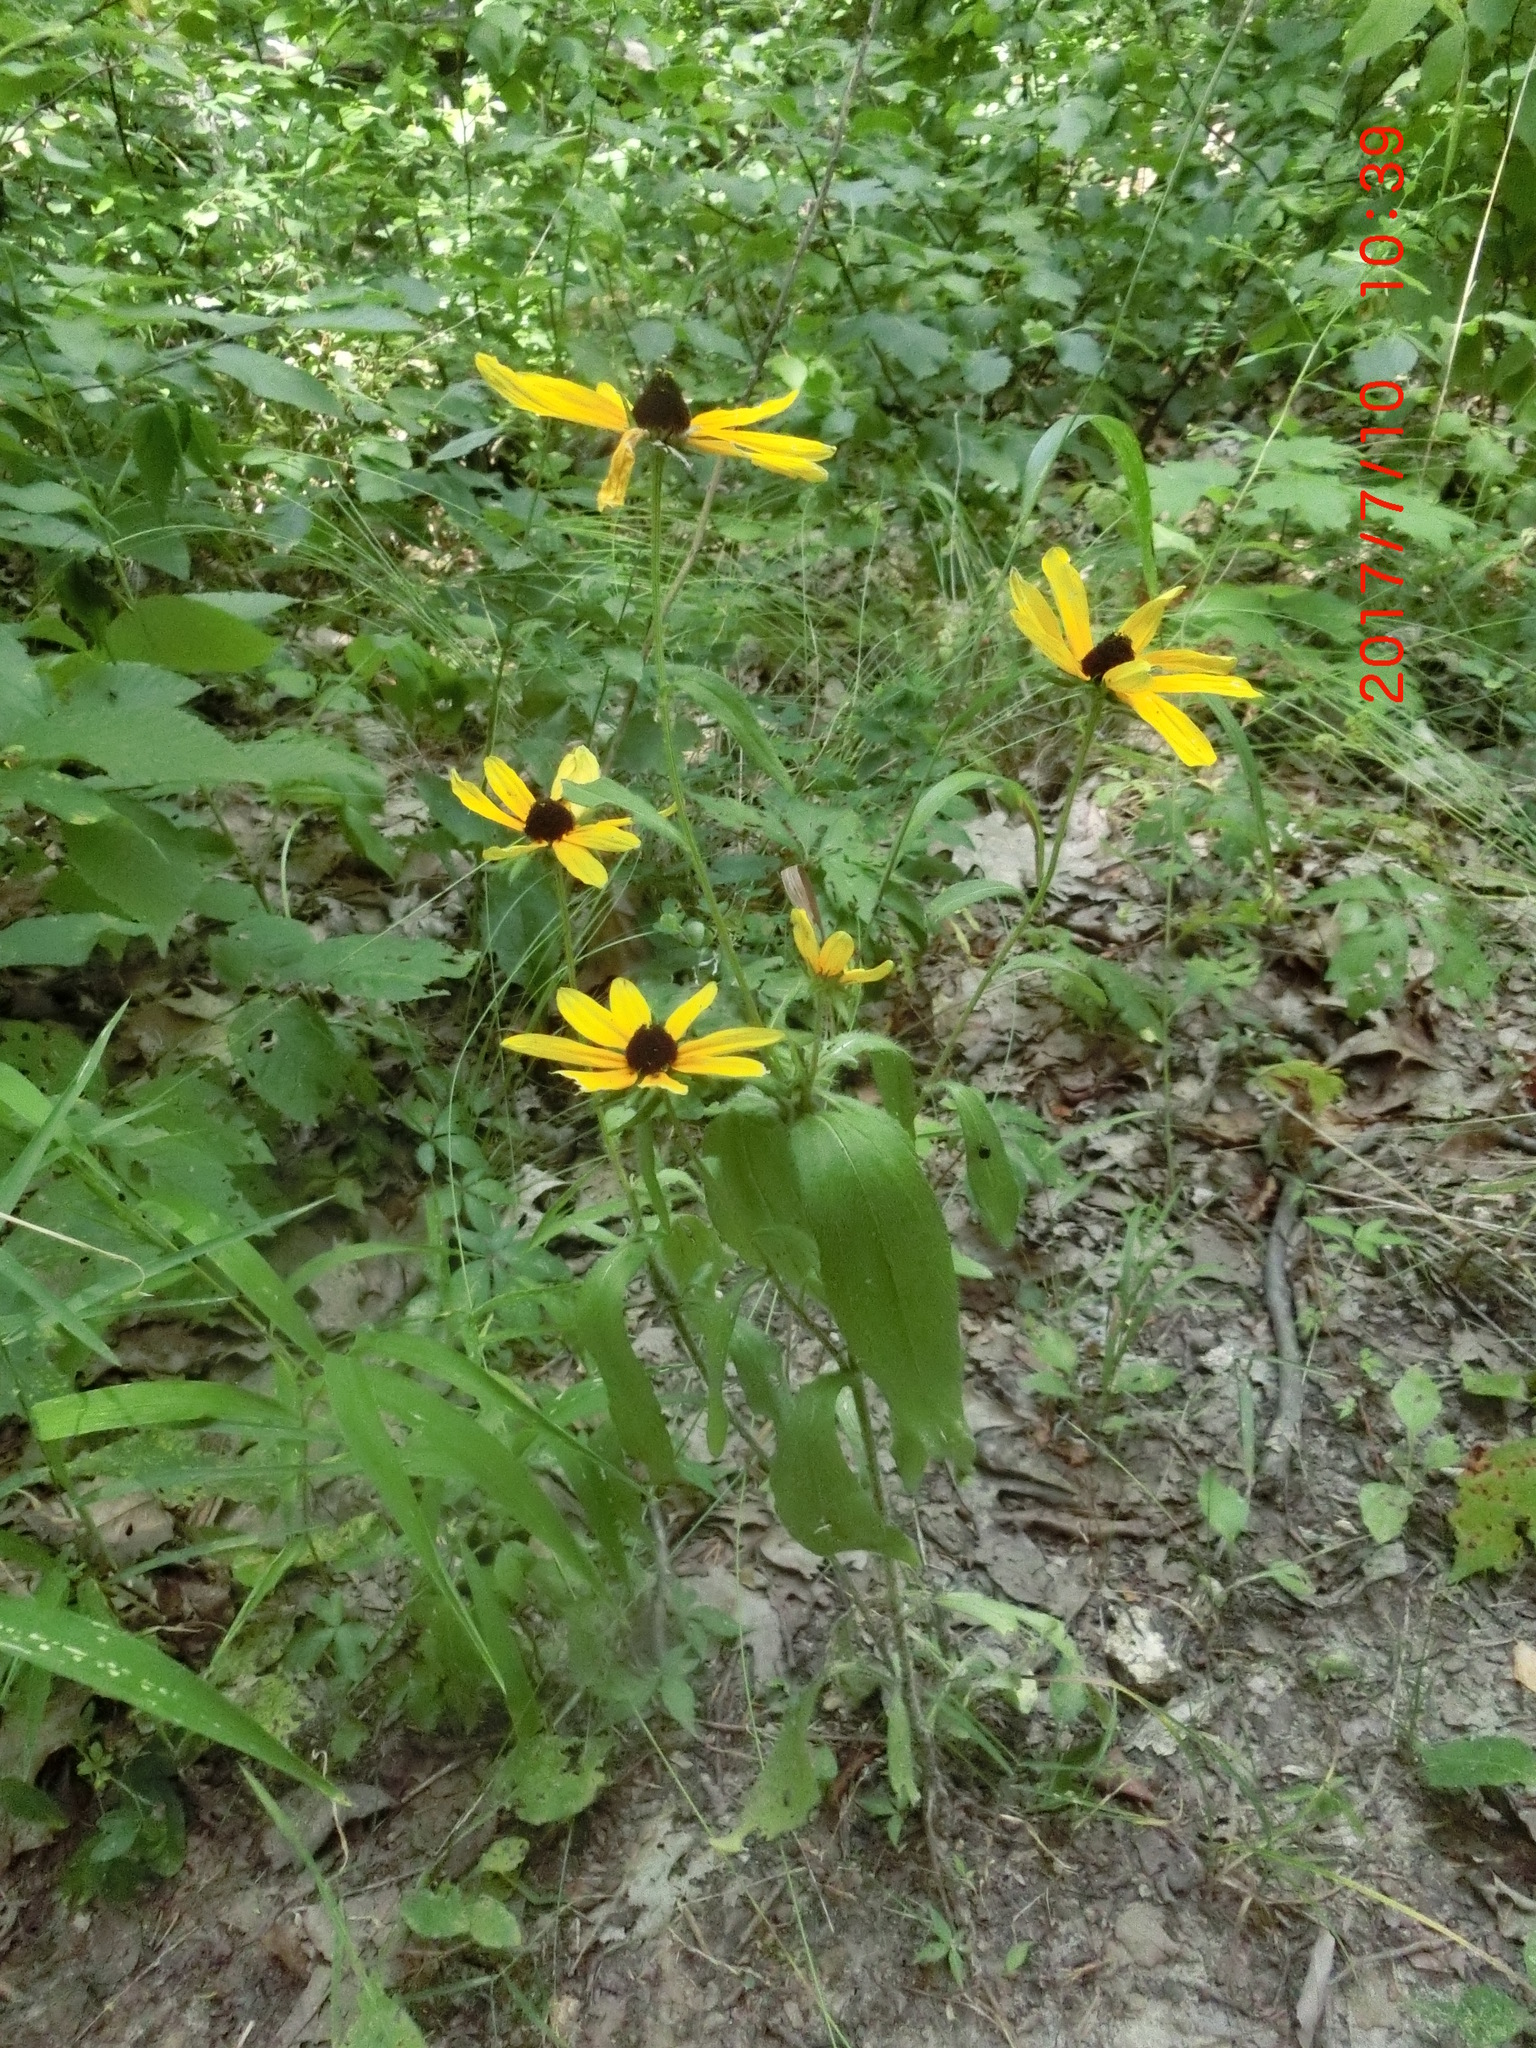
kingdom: Plantae
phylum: Tracheophyta
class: Magnoliopsida
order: Asterales
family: Asteraceae
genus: Rudbeckia
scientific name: Rudbeckia hirta
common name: Black-eyed-susan
